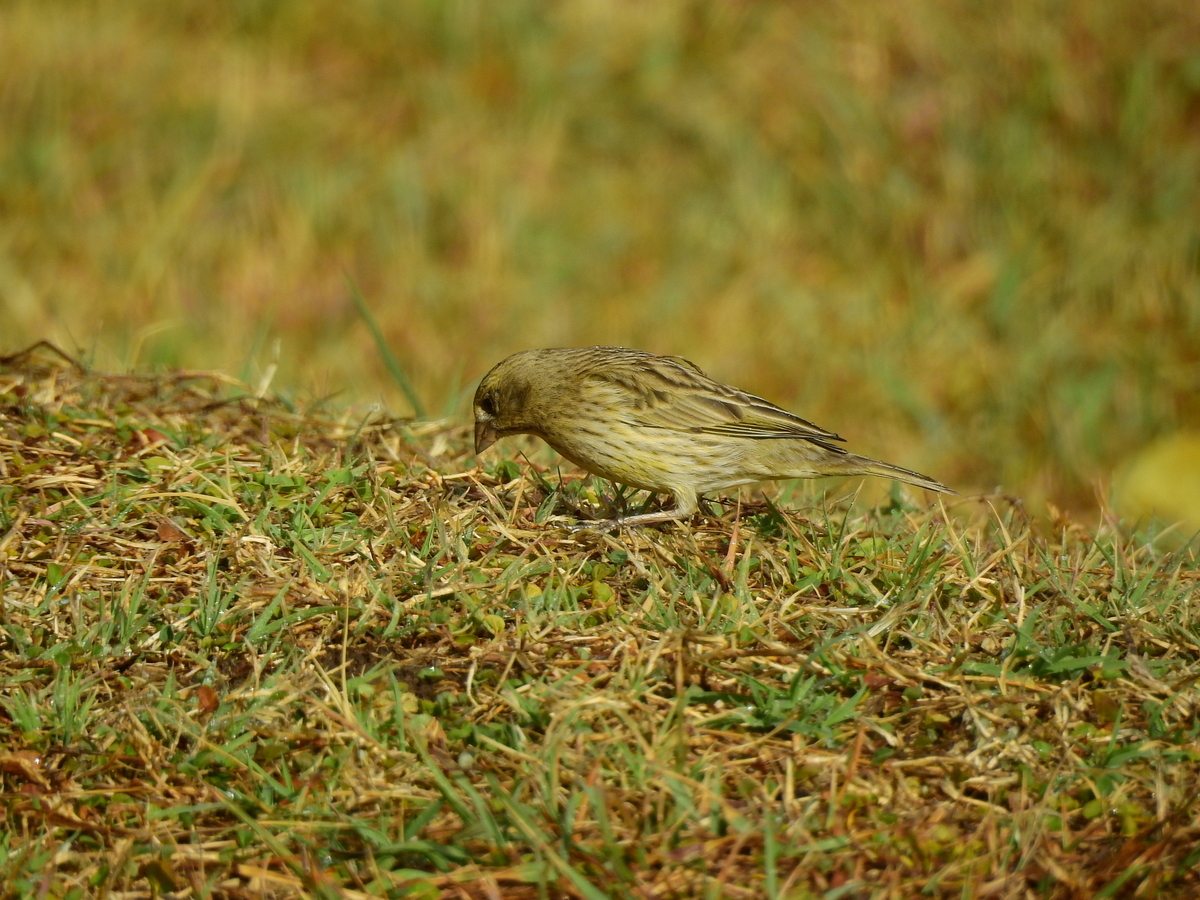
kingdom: Animalia
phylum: Chordata
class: Aves
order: Passeriformes
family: Thraupidae
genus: Sicalis
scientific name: Sicalis flaveola
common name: Saffron finch
